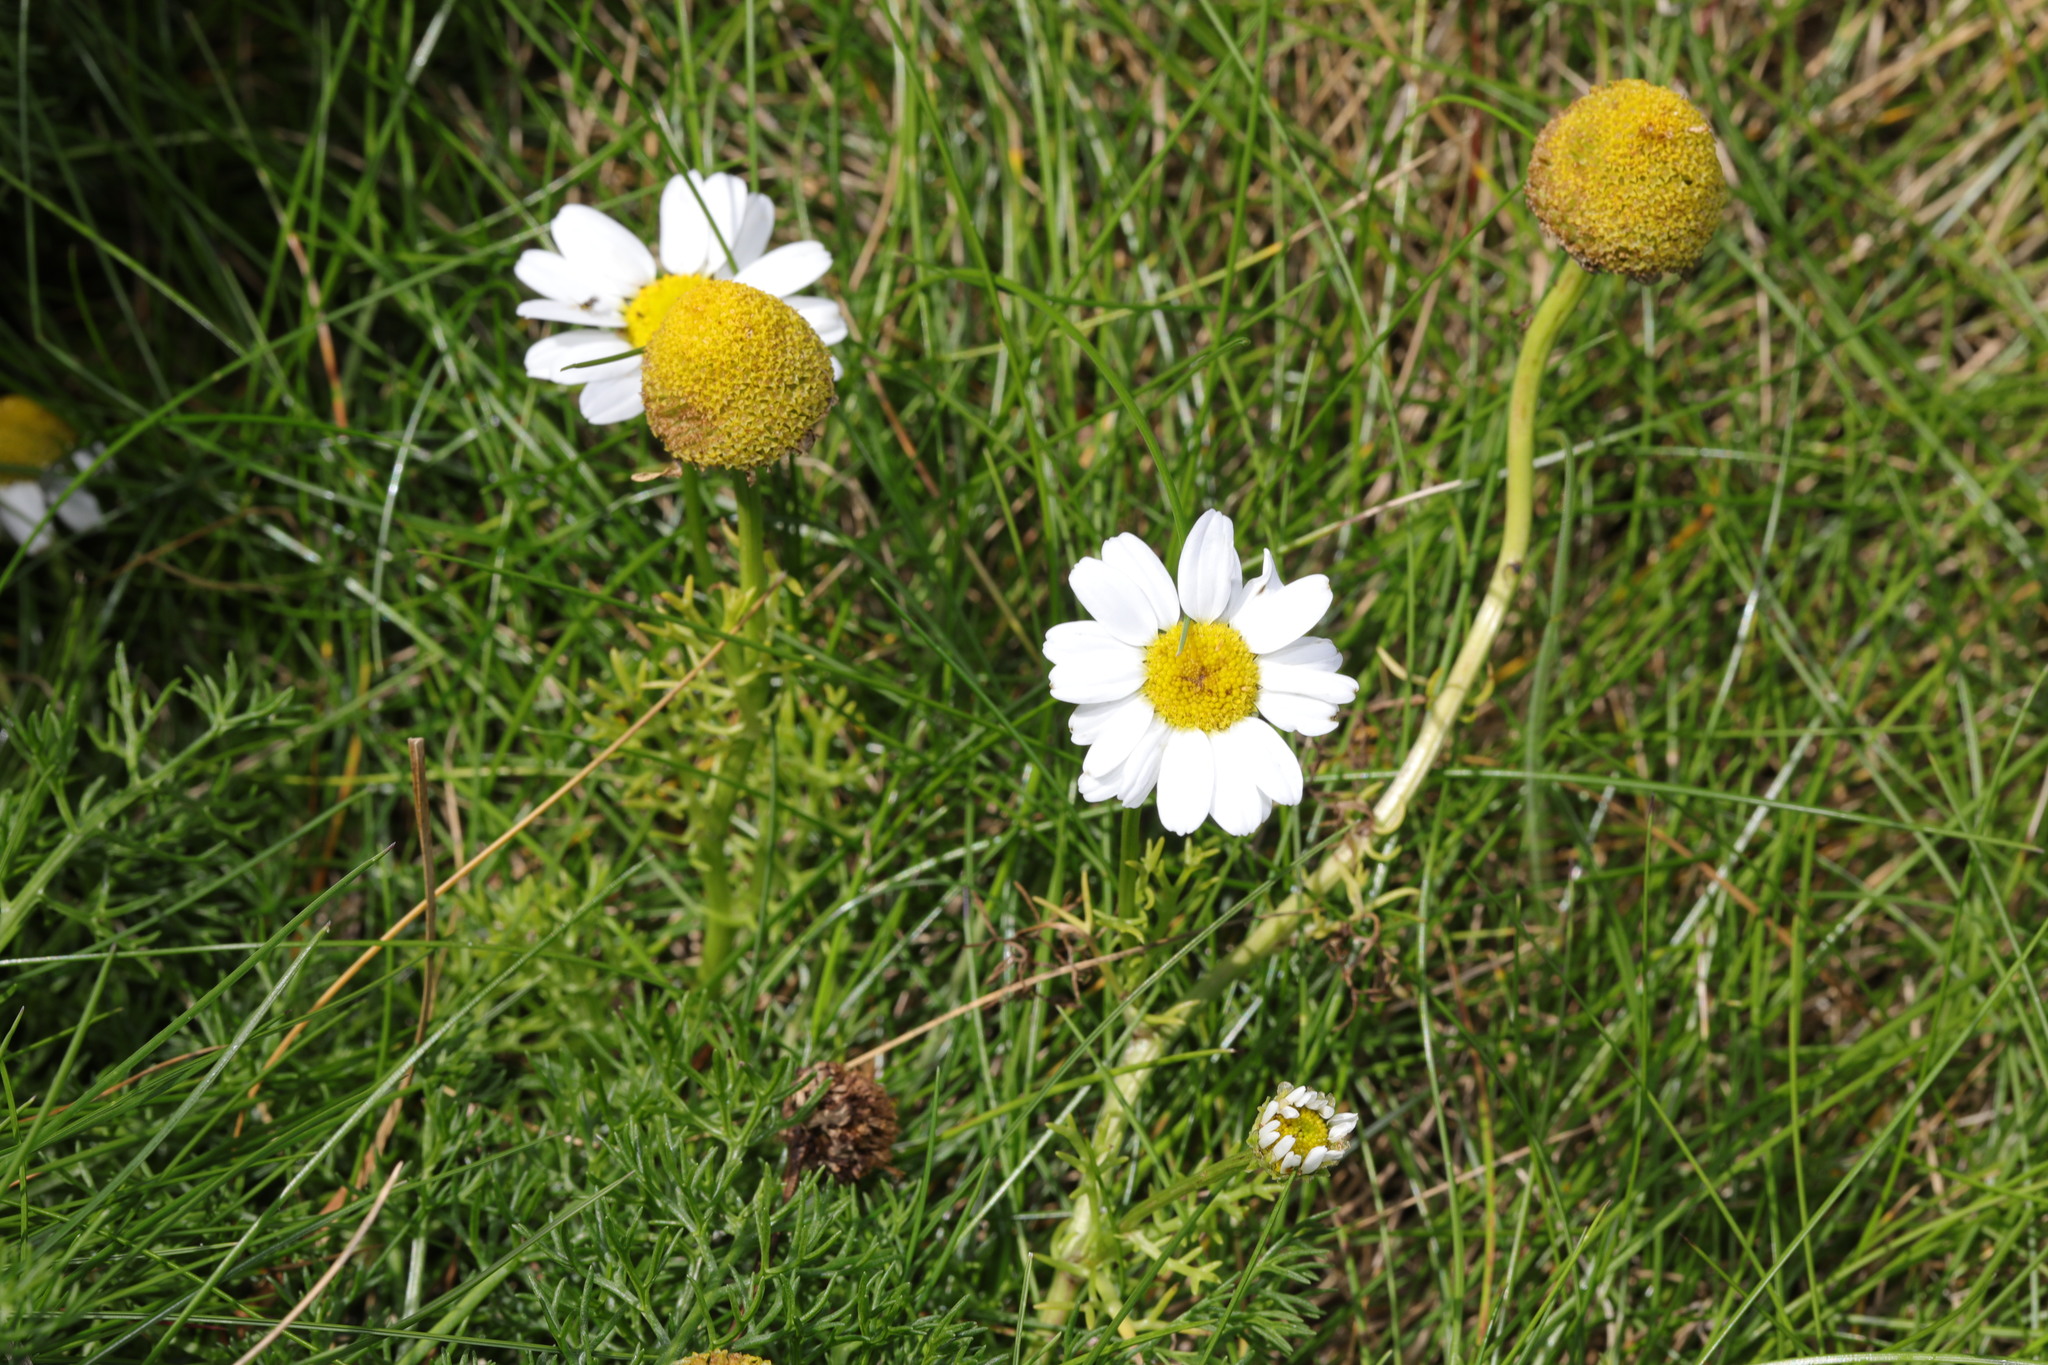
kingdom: Plantae
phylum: Tracheophyta
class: Magnoliopsida
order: Asterales
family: Asteraceae
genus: Tripleurospermum
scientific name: Tripleurospermum maritimum
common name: Sea mayweed
